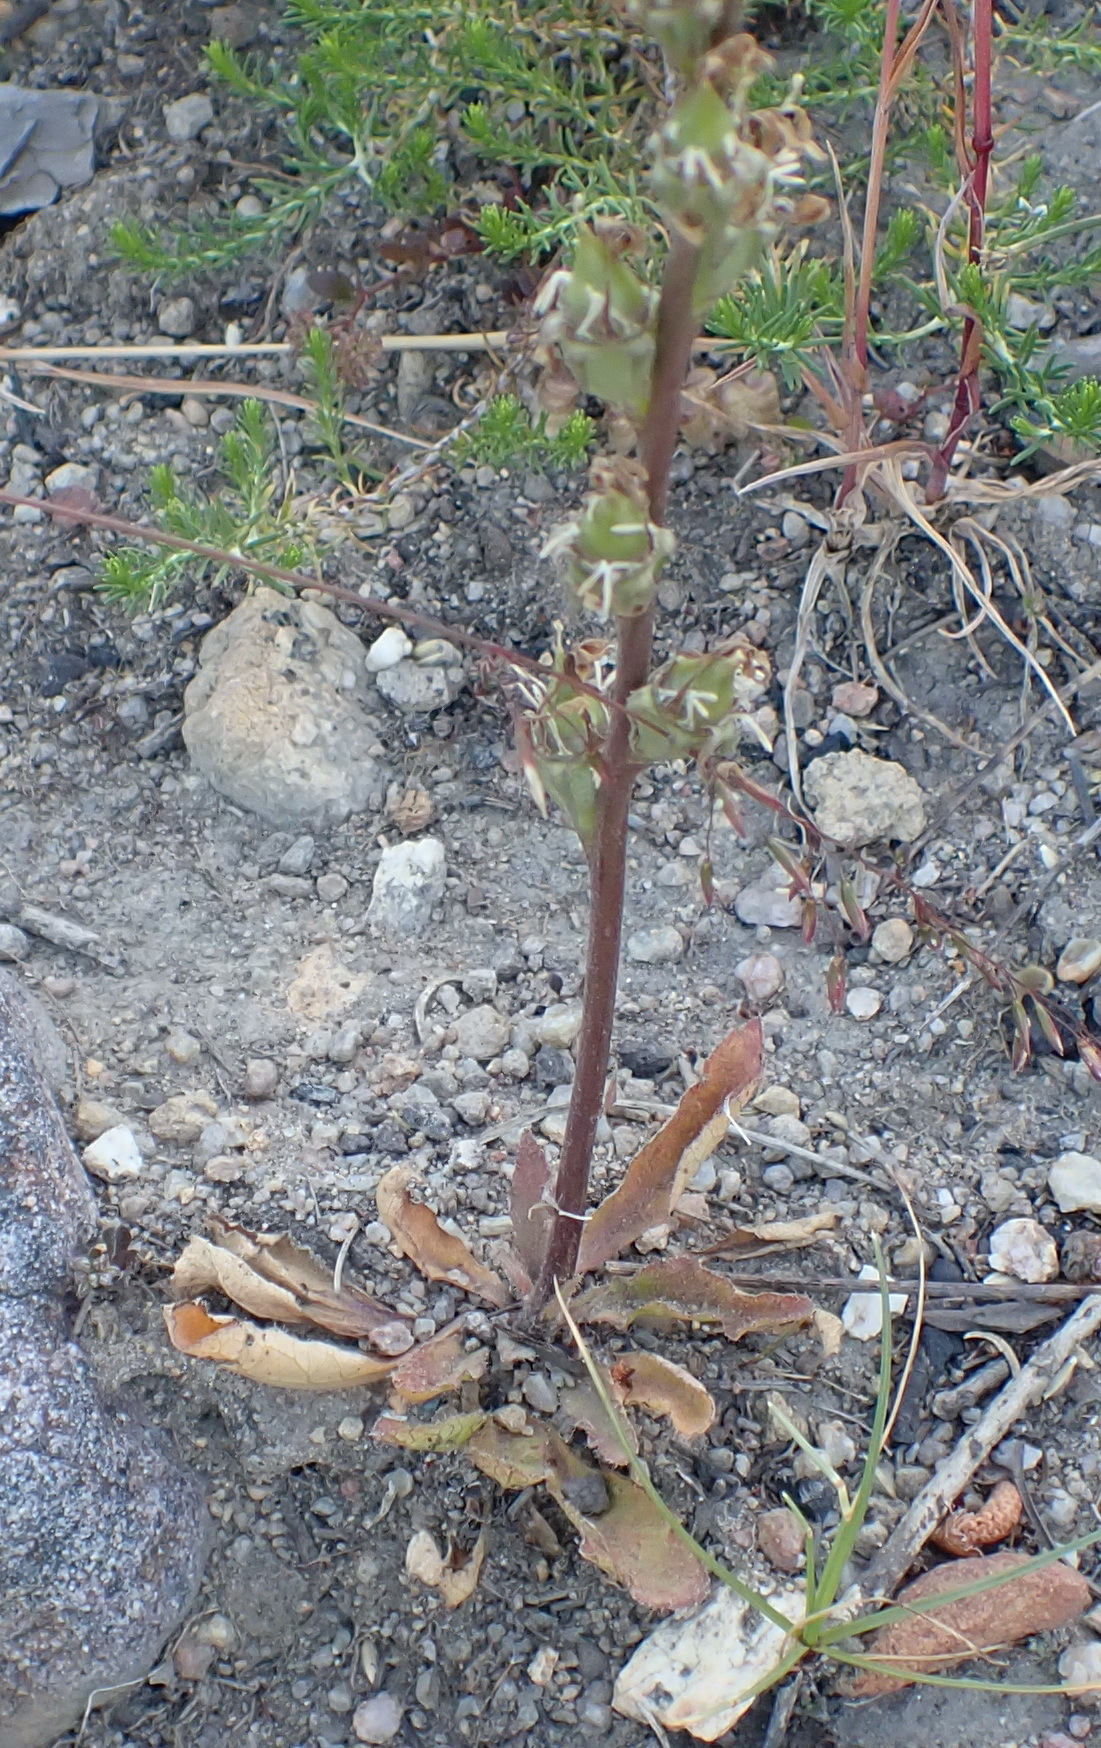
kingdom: Plantae
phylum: Tracheophyta
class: Magnoliopsida
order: Asterales
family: Campanulaceae
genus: Cyphia
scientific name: Cyphia phyteuma
